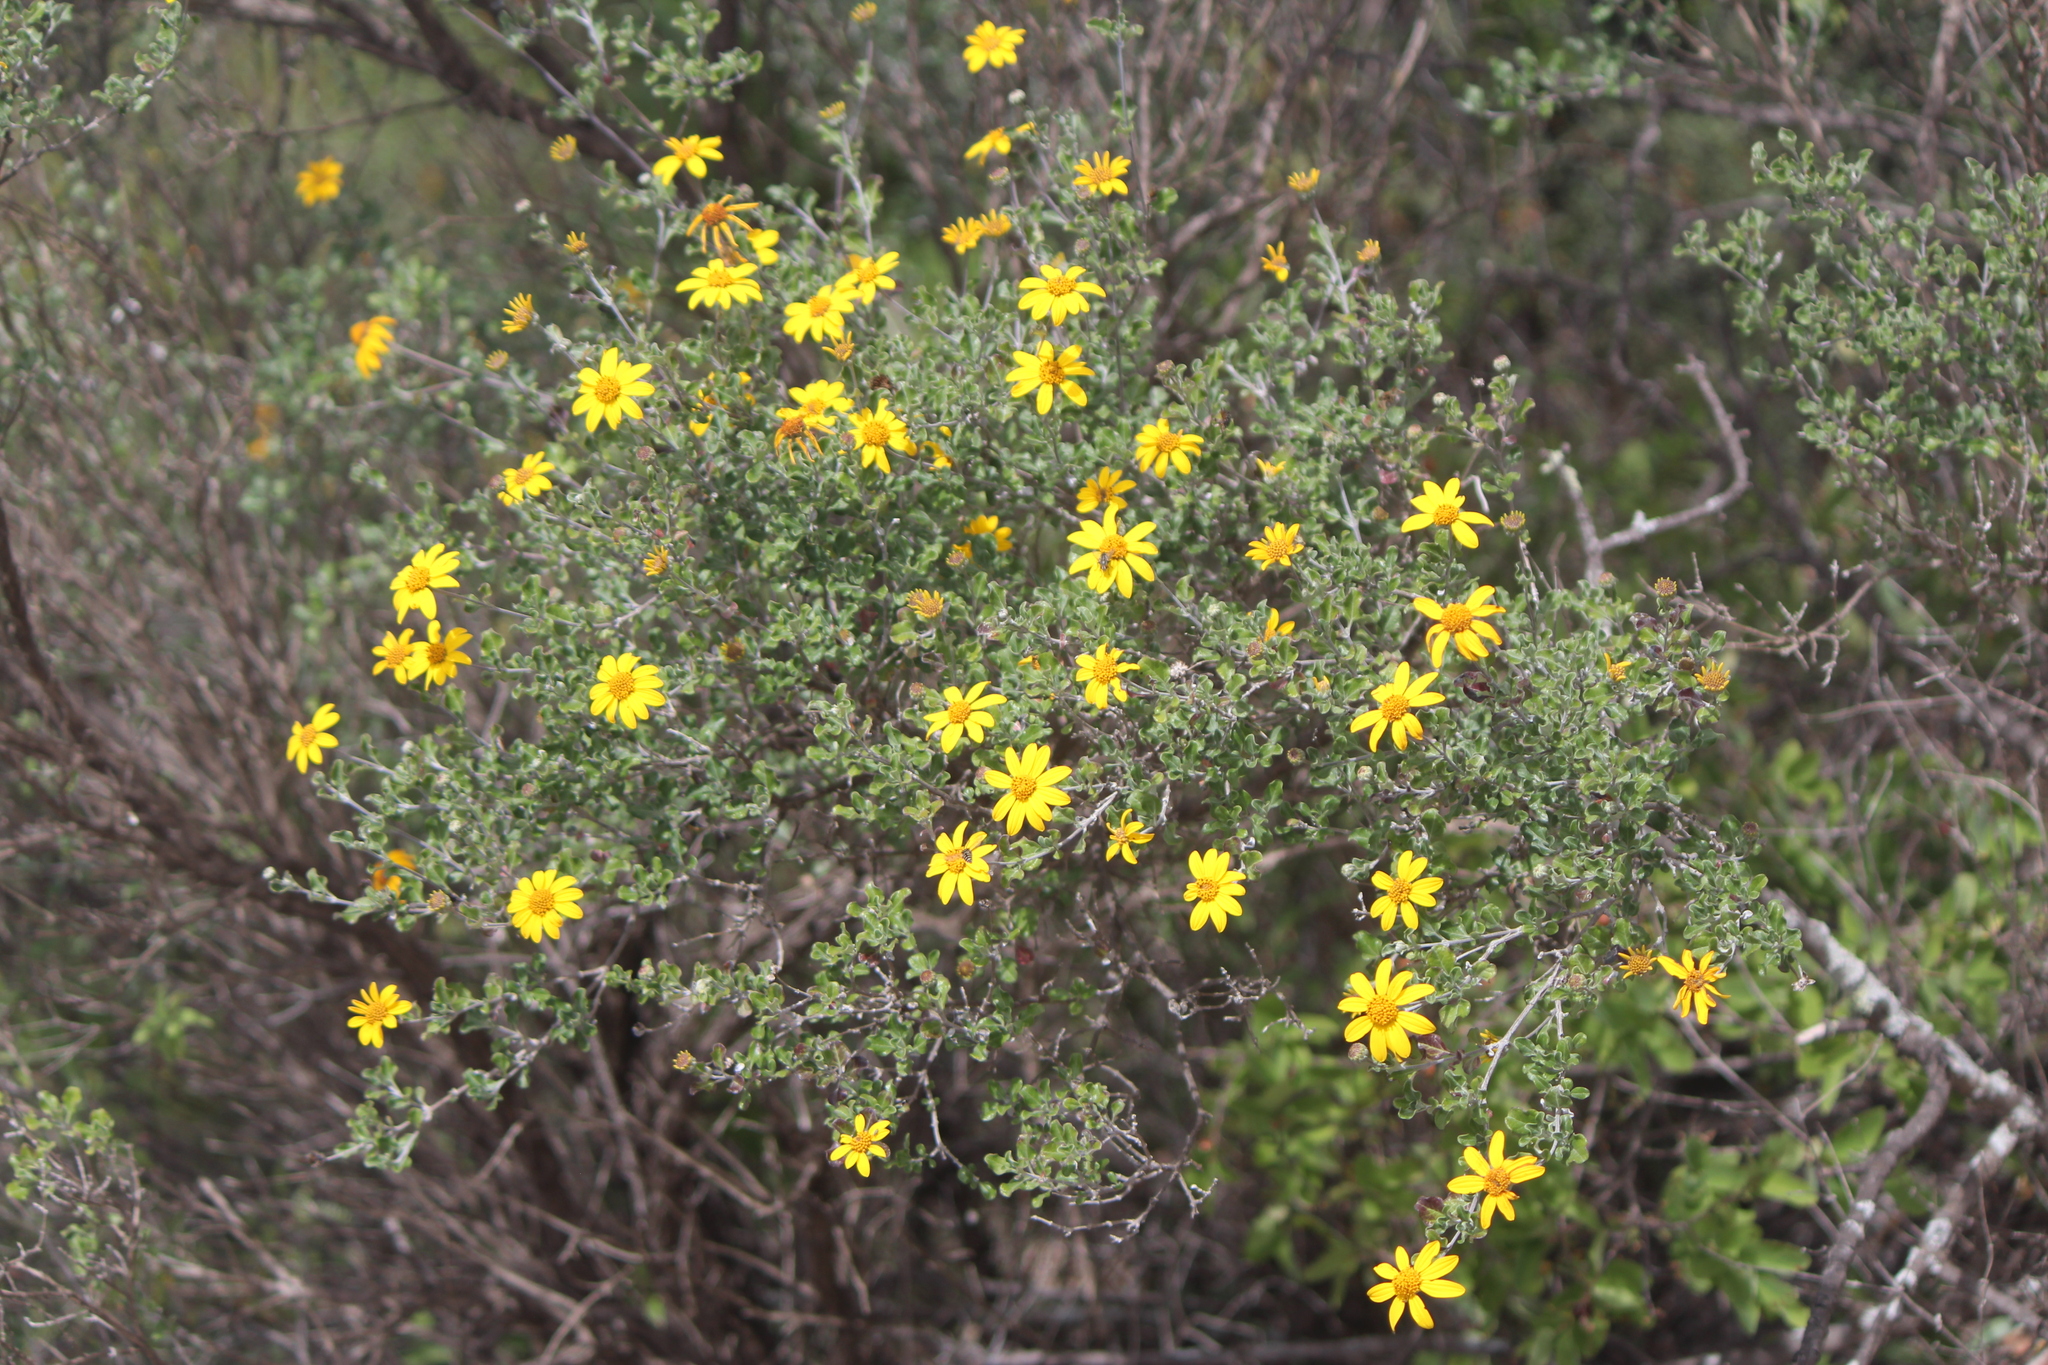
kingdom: Plantae
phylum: Tracheophyta
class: Magnoliopsida
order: Asterales
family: Asteraceae
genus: Calanticaria
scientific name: Calanticaria bicolor
